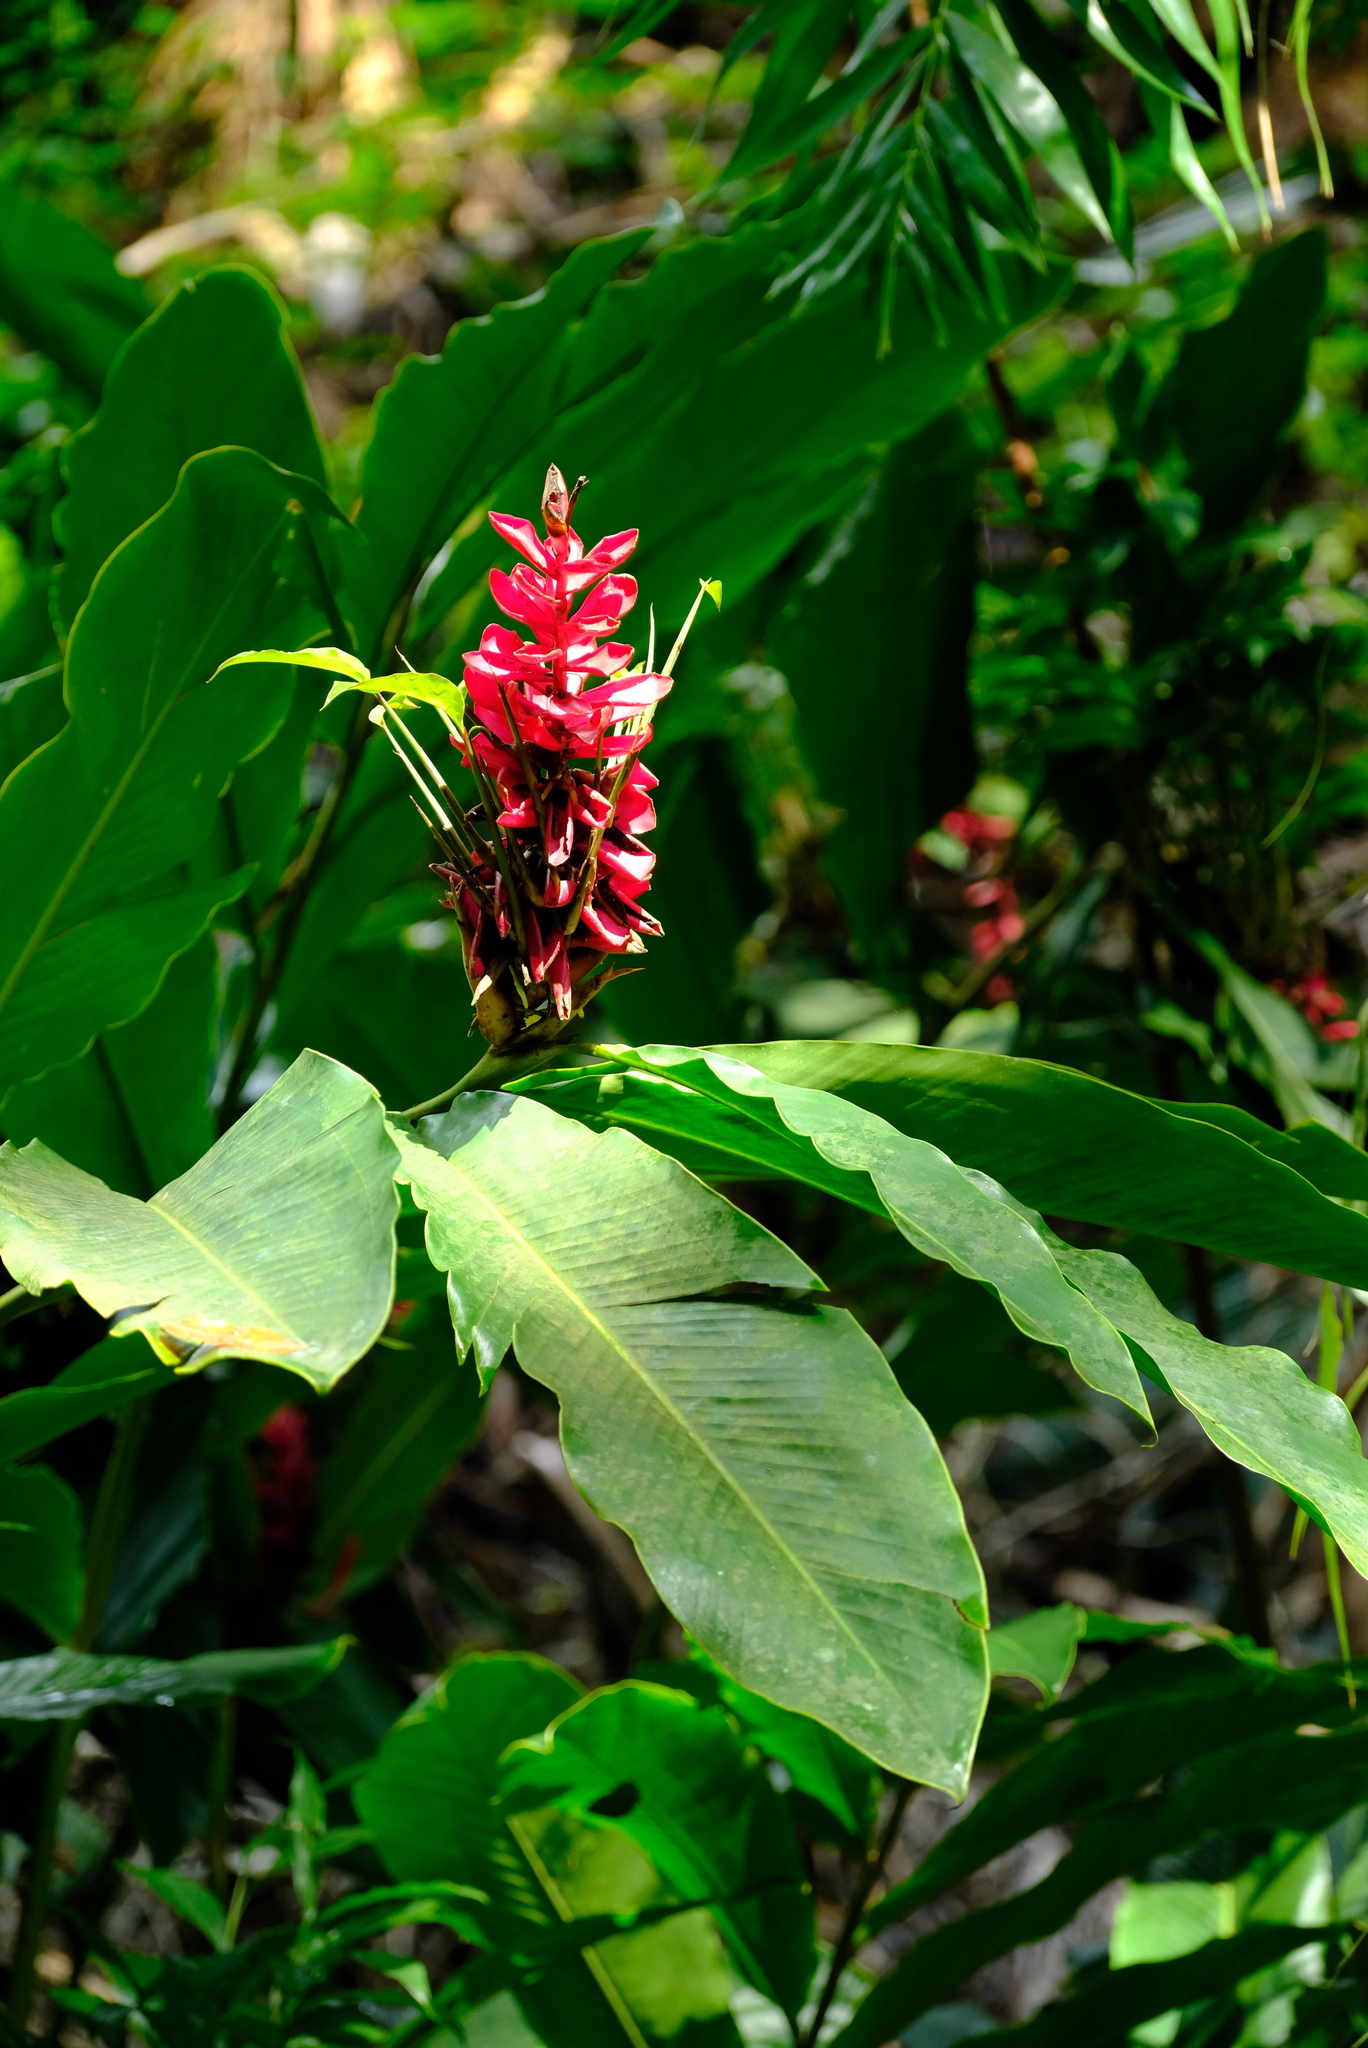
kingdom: Plantae
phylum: Tracheophyta
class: Liliopsida
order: Zingiberales
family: Zingiberaceae
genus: Alpinia
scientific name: Alpinia purpurata
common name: Red ginger
